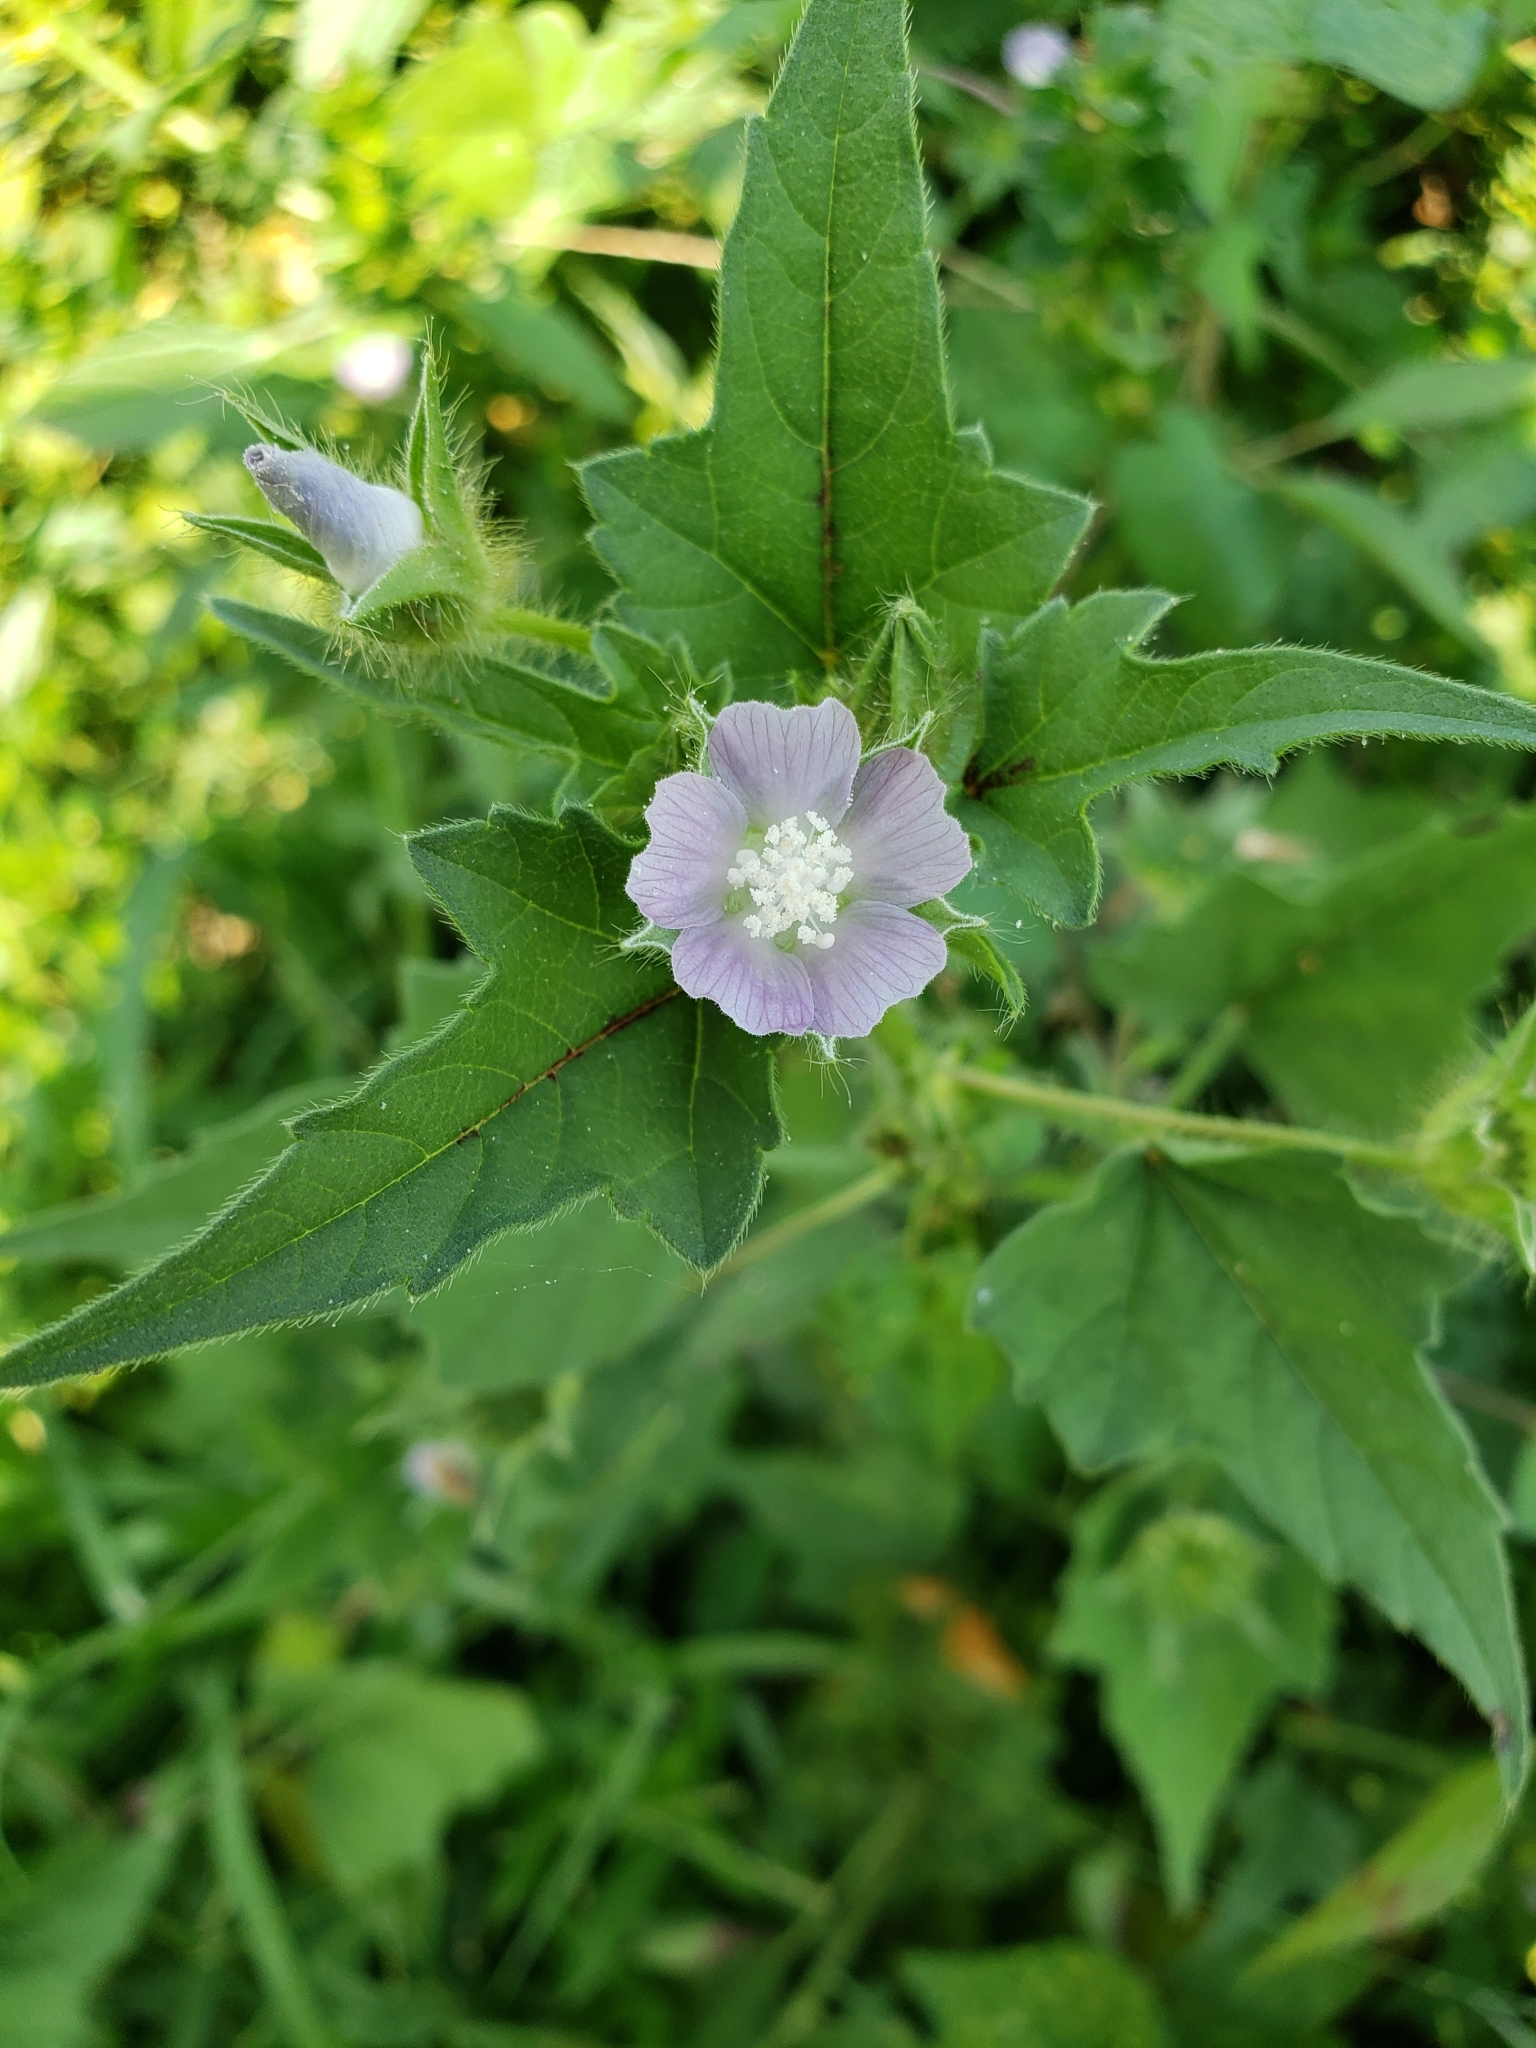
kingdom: Plantae
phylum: Tracheophyta
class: Magnoliopsida
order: Malvales
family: Malvaceae
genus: Anoda
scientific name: Anoda cristata
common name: Spurred anoda
